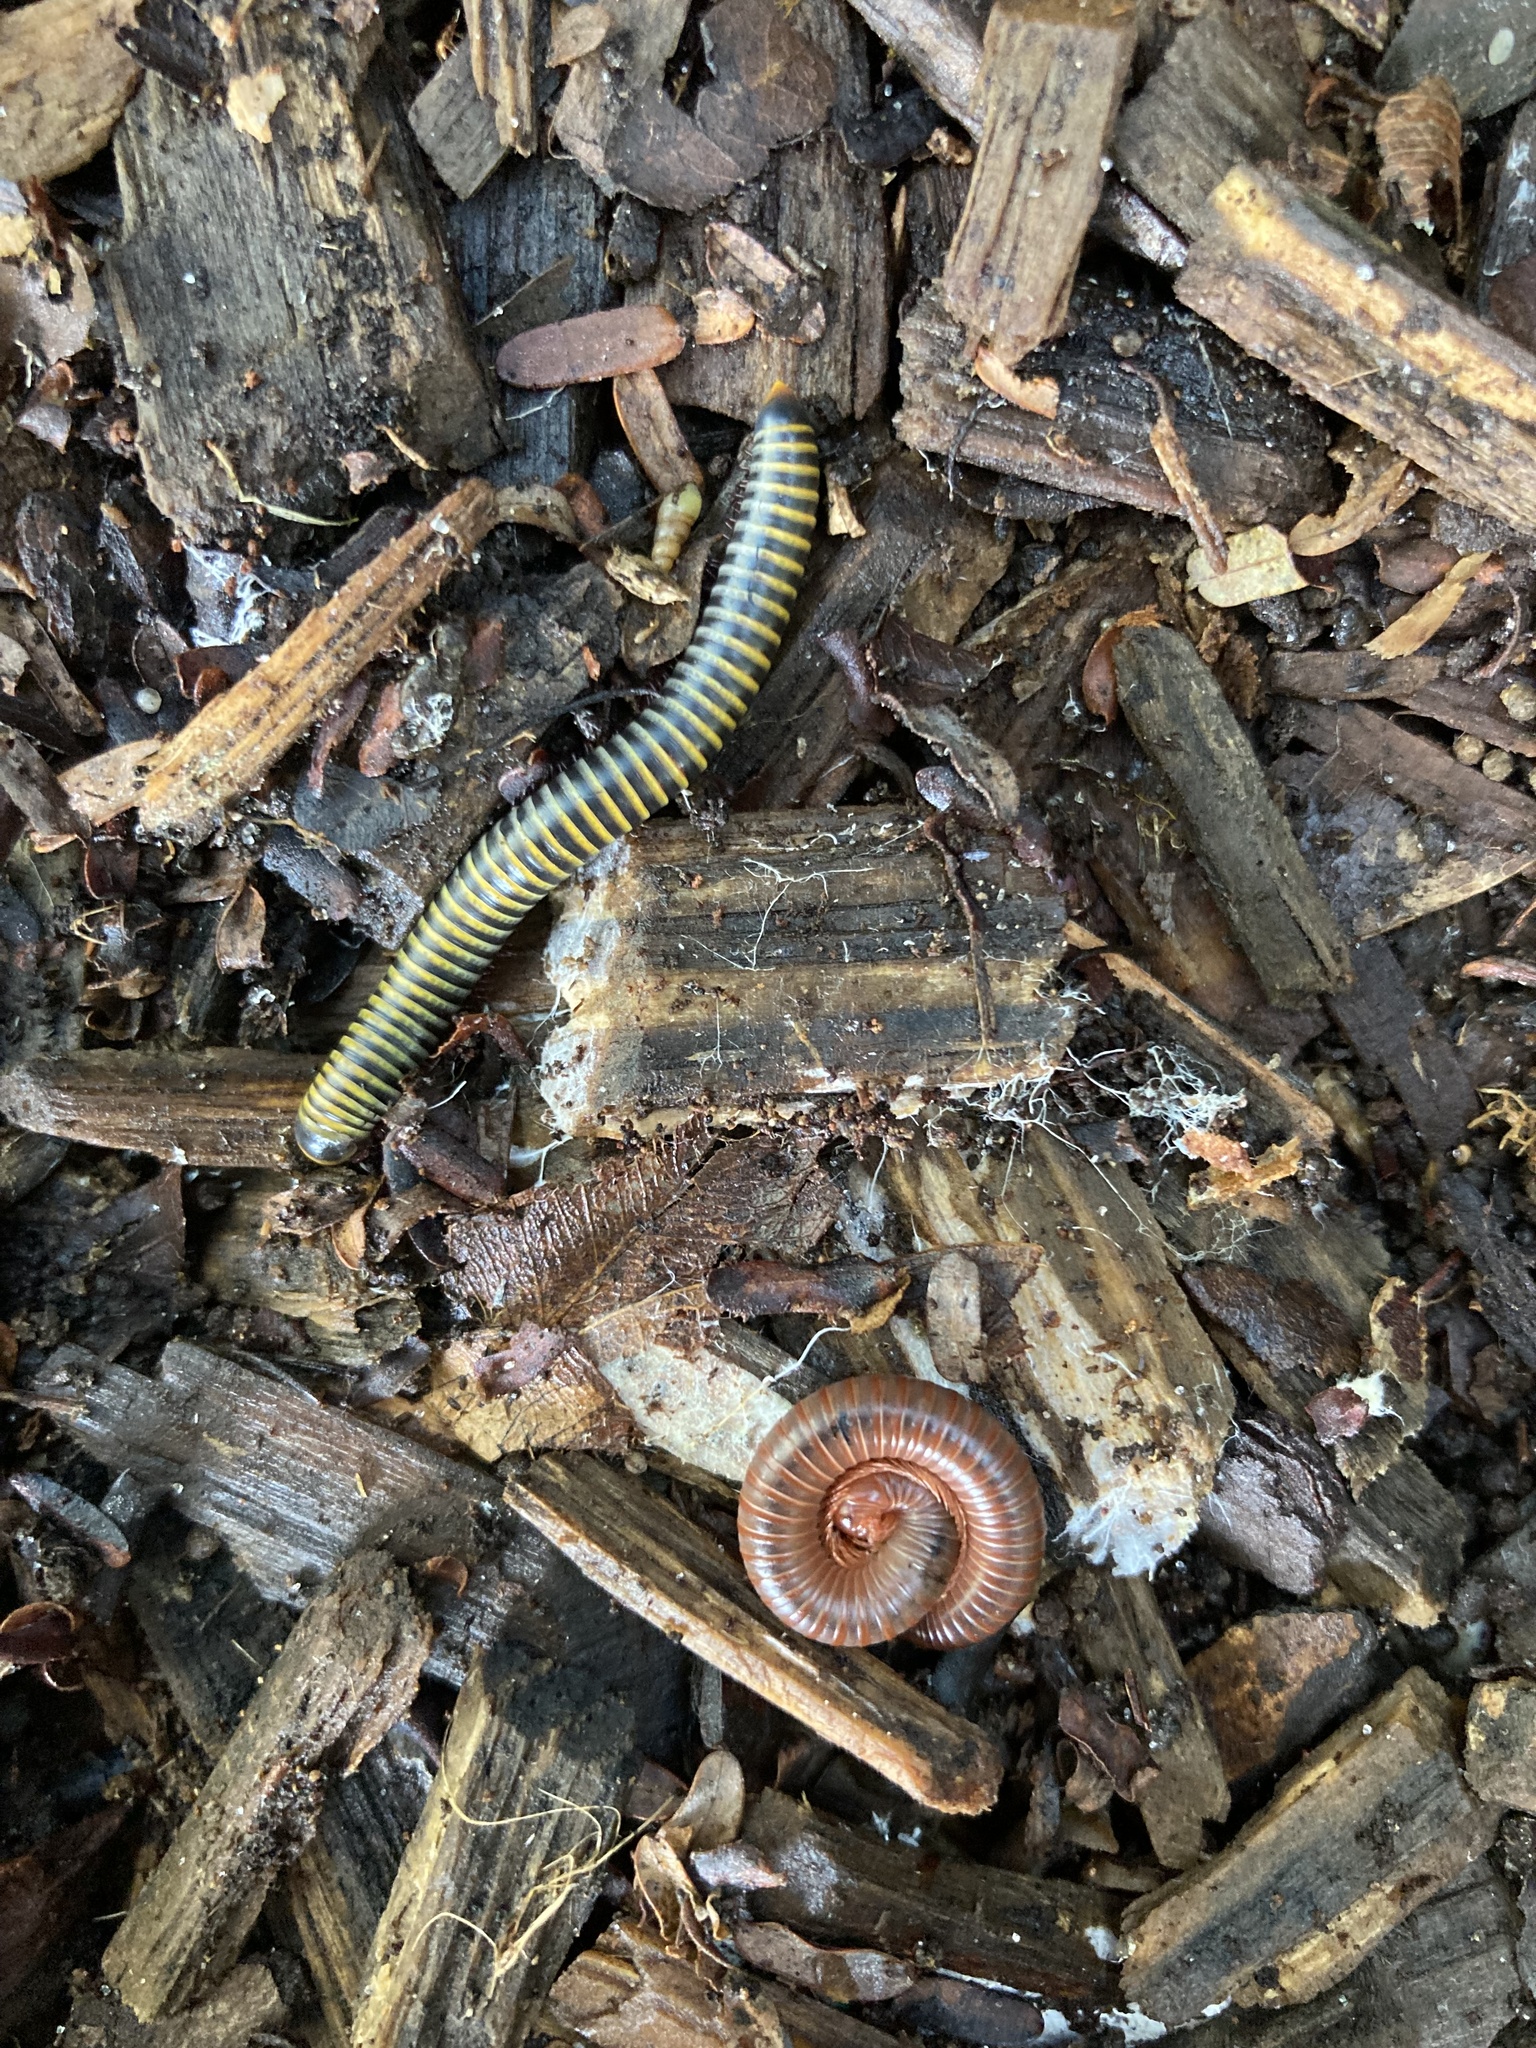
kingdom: Animalia
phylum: Arthropoda
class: Diplopoda
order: Spirobolida
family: Pachybolidae
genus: Trigoniulus
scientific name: Trigoniulus corallinus
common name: Millipede
